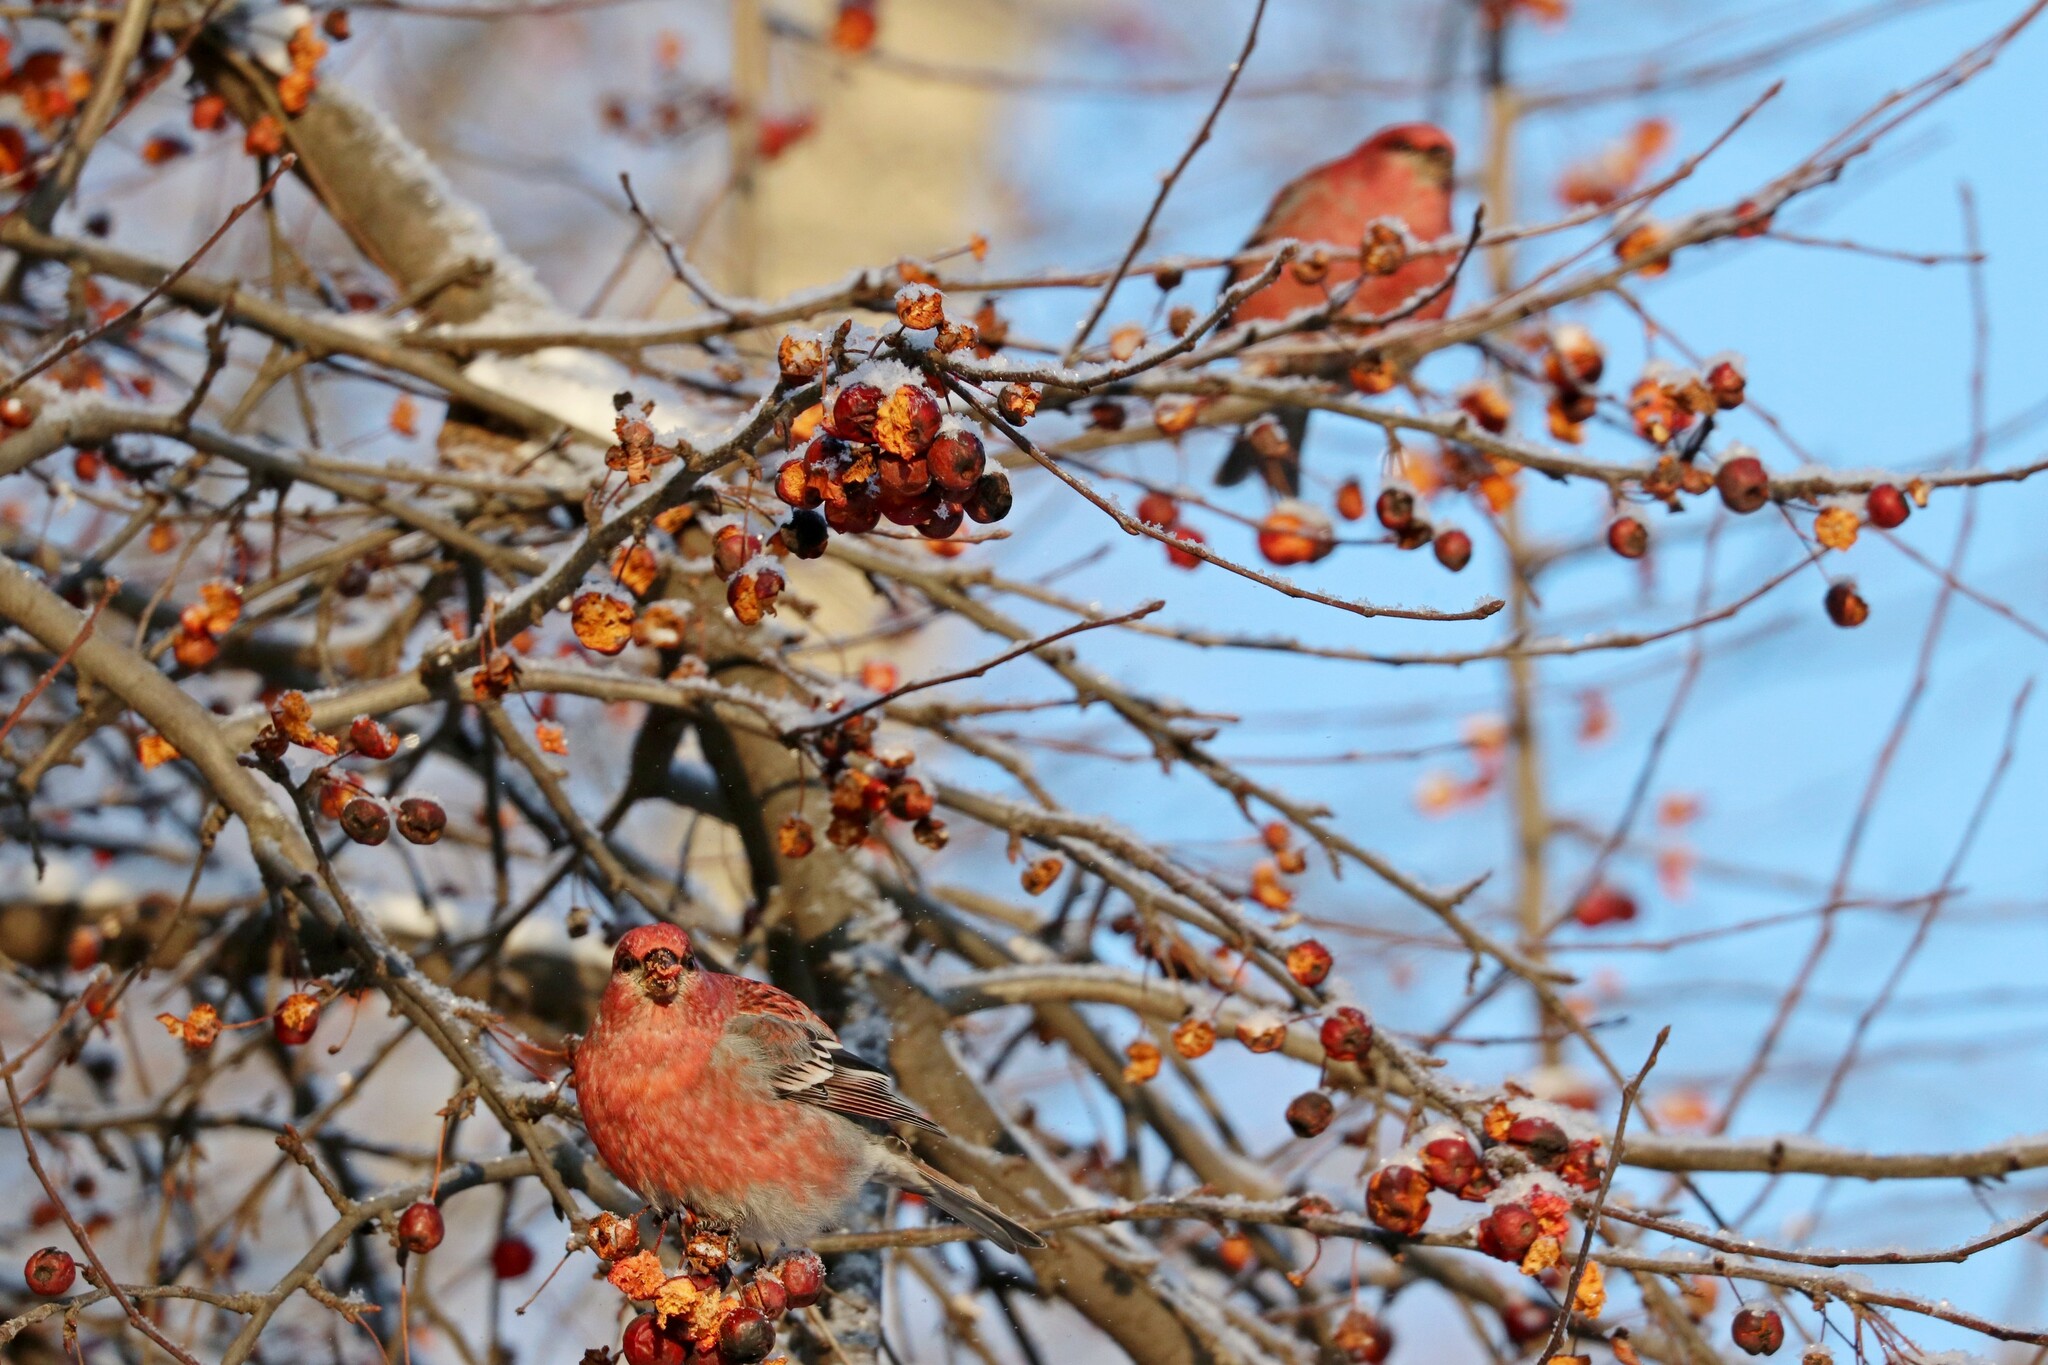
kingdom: Animalia
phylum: Chordata
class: Aves
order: Passeriformes
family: Fringillidae
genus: Pinicola
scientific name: Pinicola enucleator
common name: Pine grosbeak
